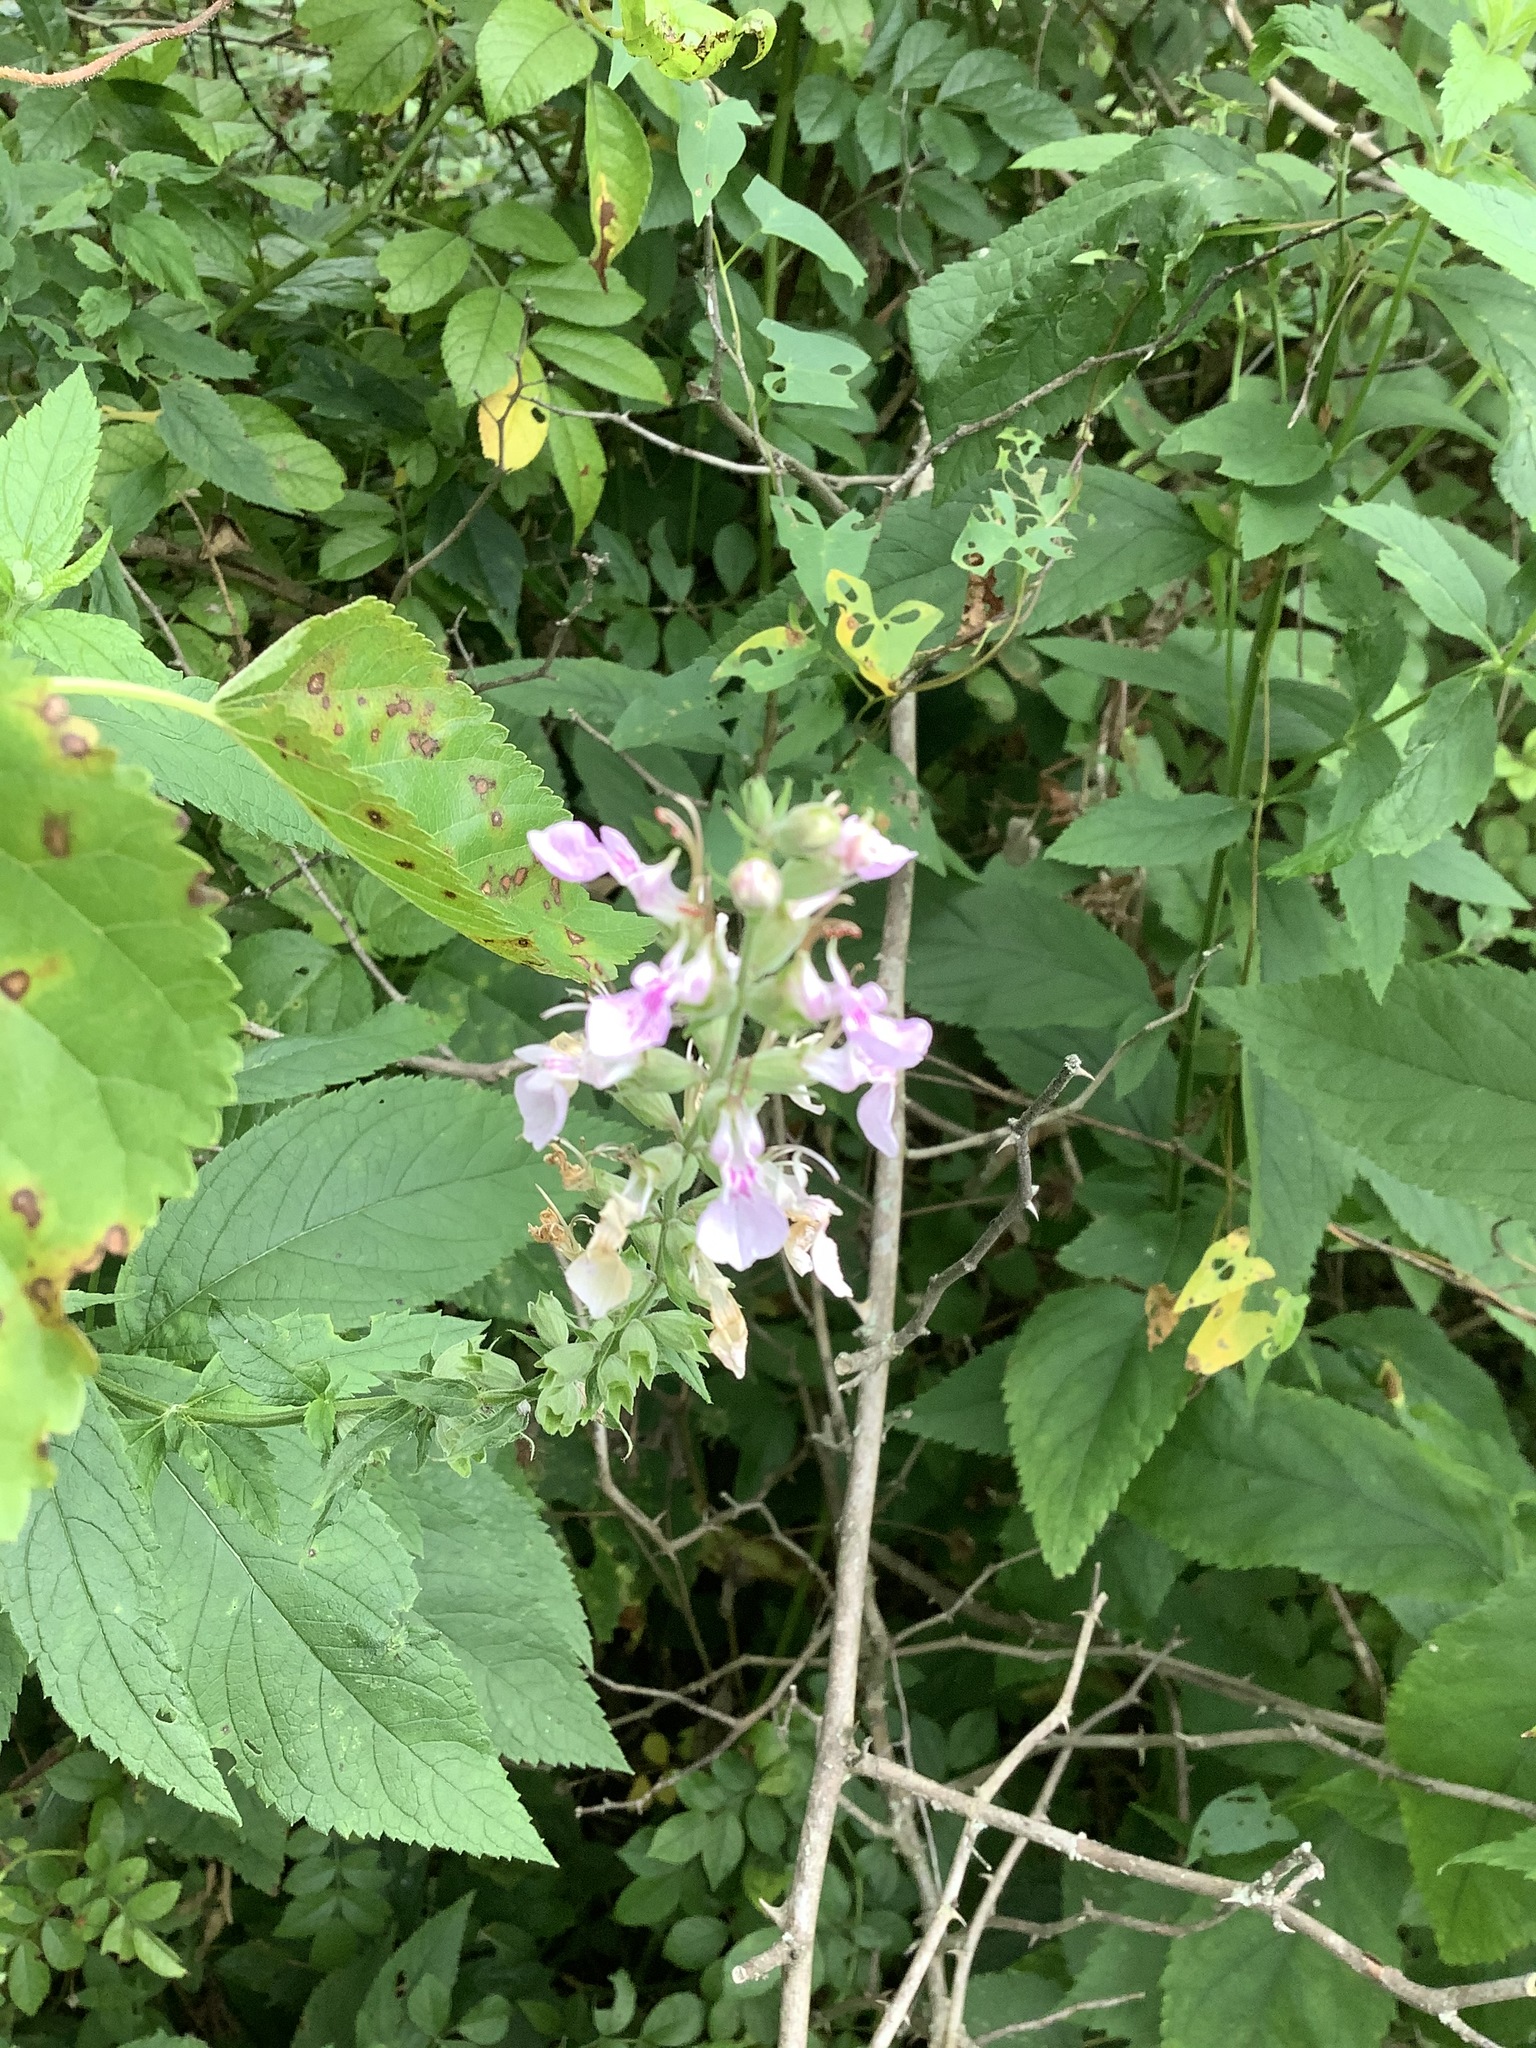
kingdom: Plantae
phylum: Tracheophyta
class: Magnoliopsida
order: Lamiales
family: Lamiaceae
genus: Teucrium
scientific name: Teucrium canadense
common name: American germander
